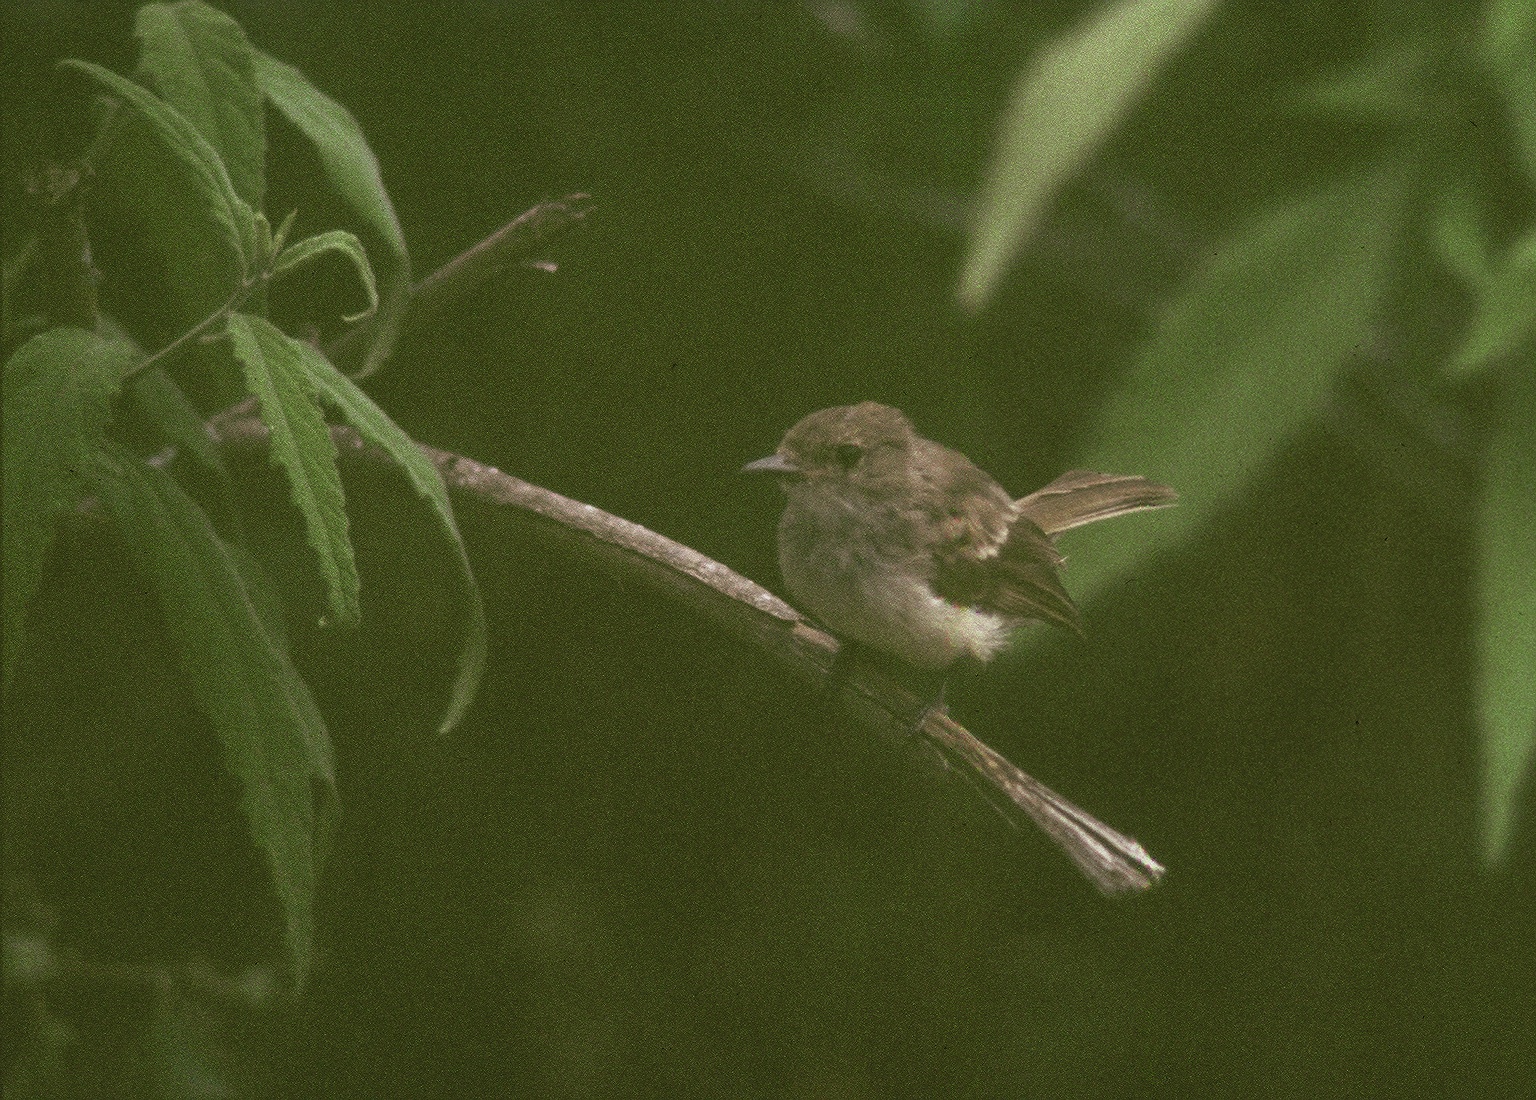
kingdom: Animalia
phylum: Chordata
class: Aves
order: Passeriformes
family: Tyrannidae
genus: Myiarchus
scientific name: Myiarchus magnirostris
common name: Galapagos flycatcher
